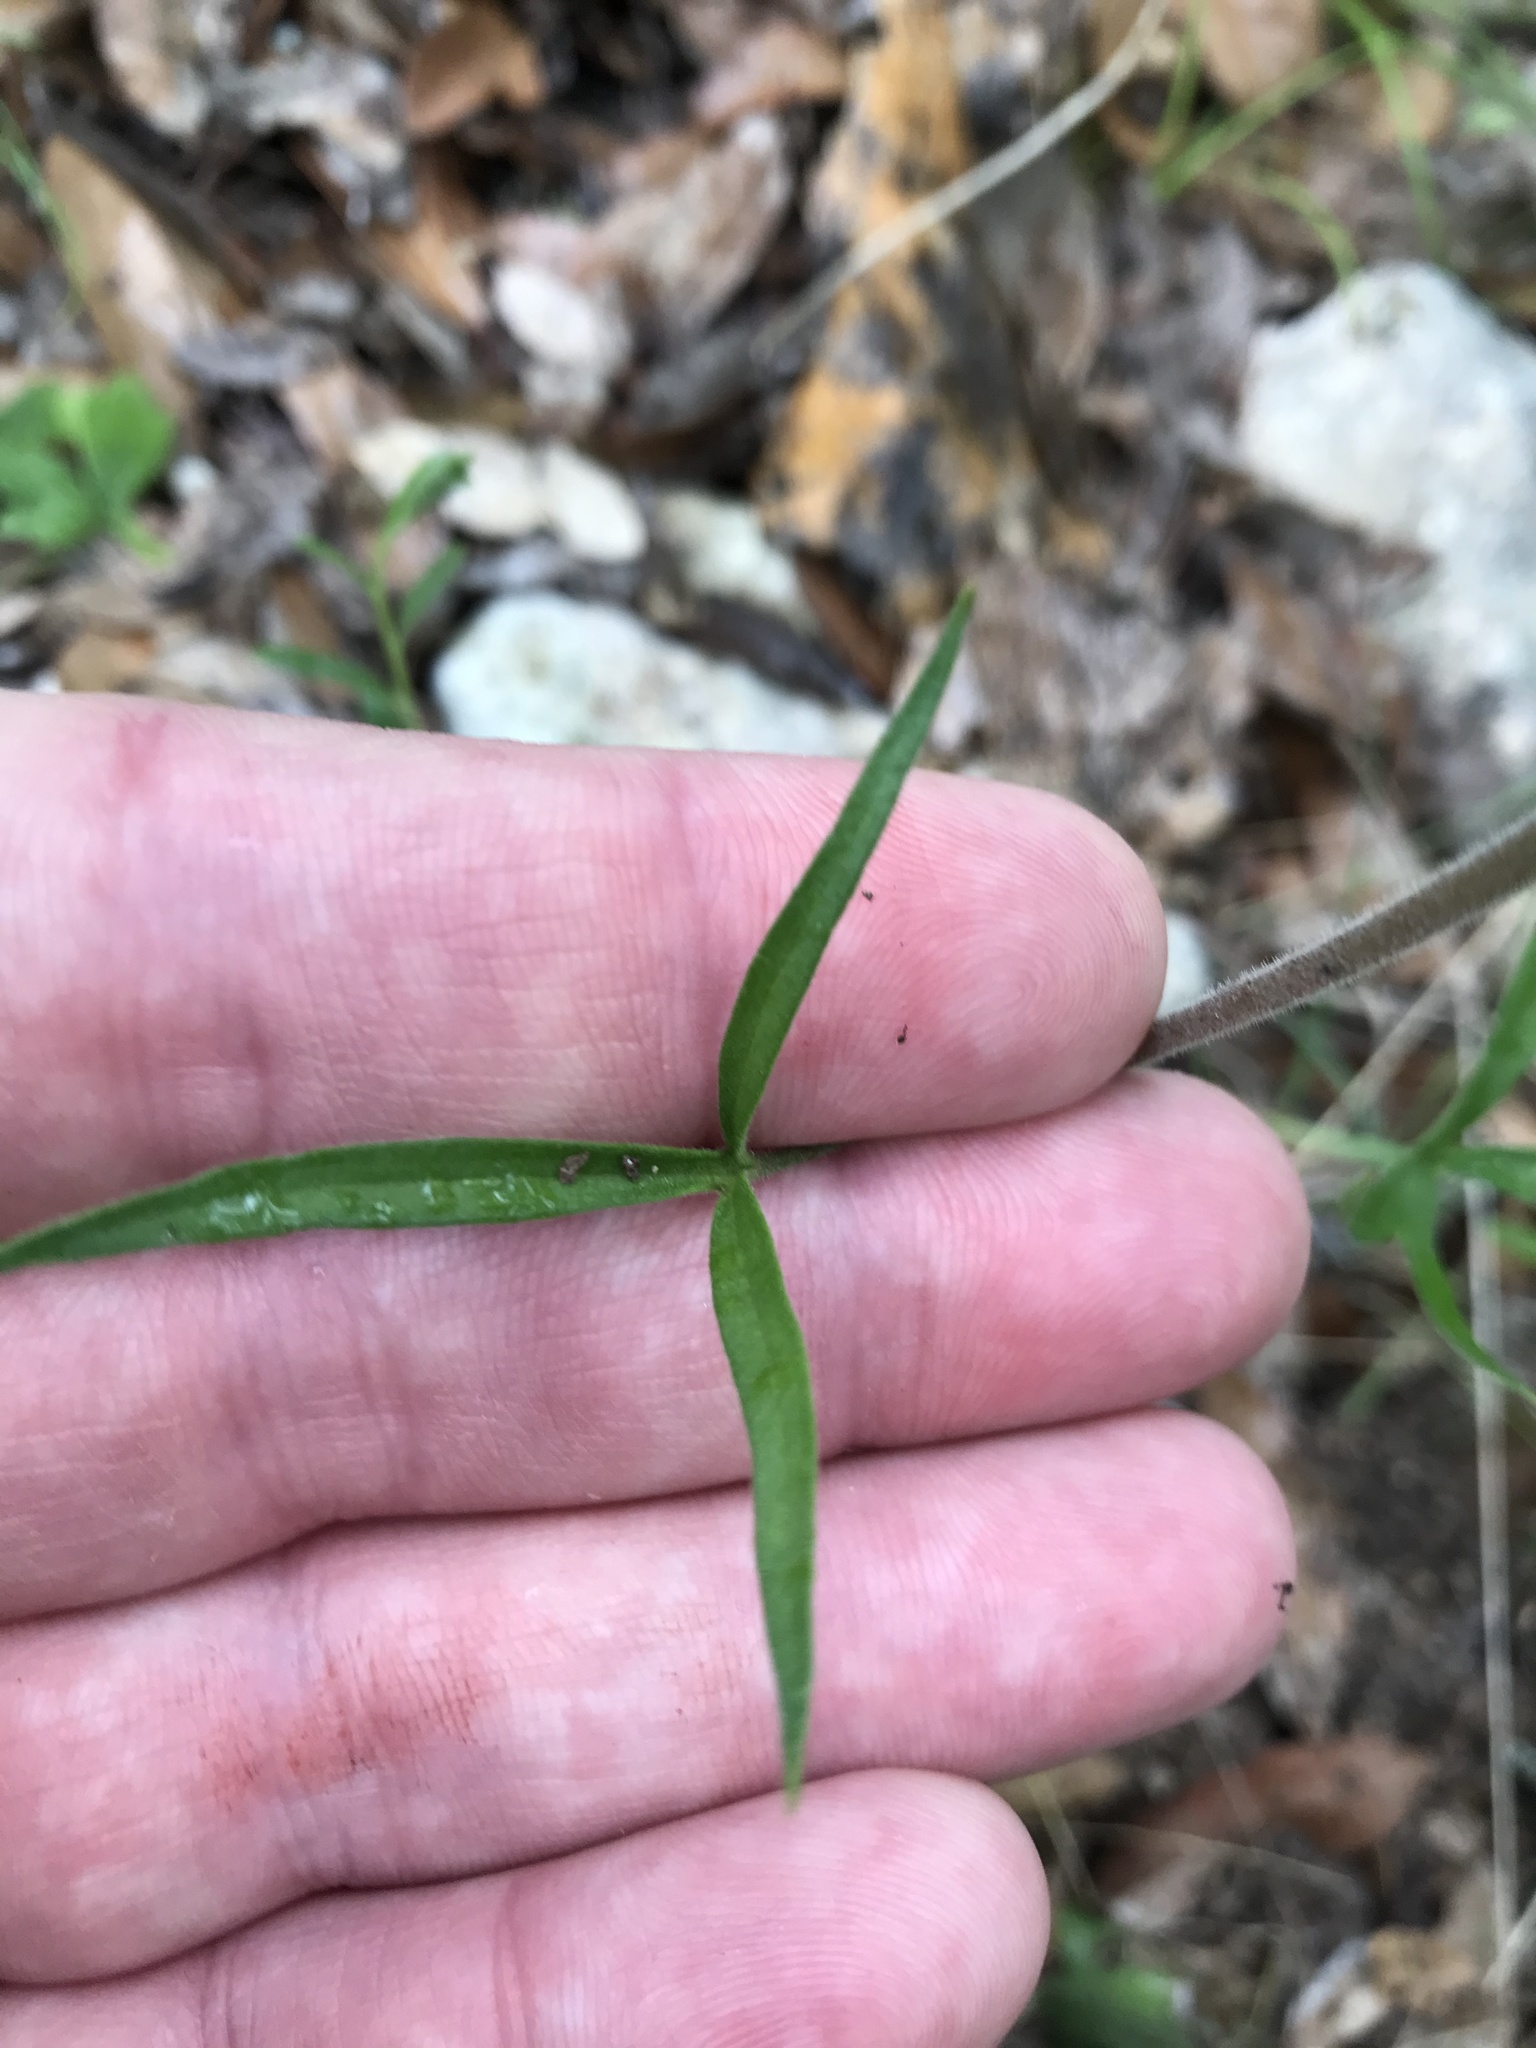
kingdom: Plantae
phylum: Tracheophyta
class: Magnoliopsida
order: Ranunculales
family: Ranunculaceae
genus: Delphinium
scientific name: Delphinium carolinianum
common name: Carolina larkspur
